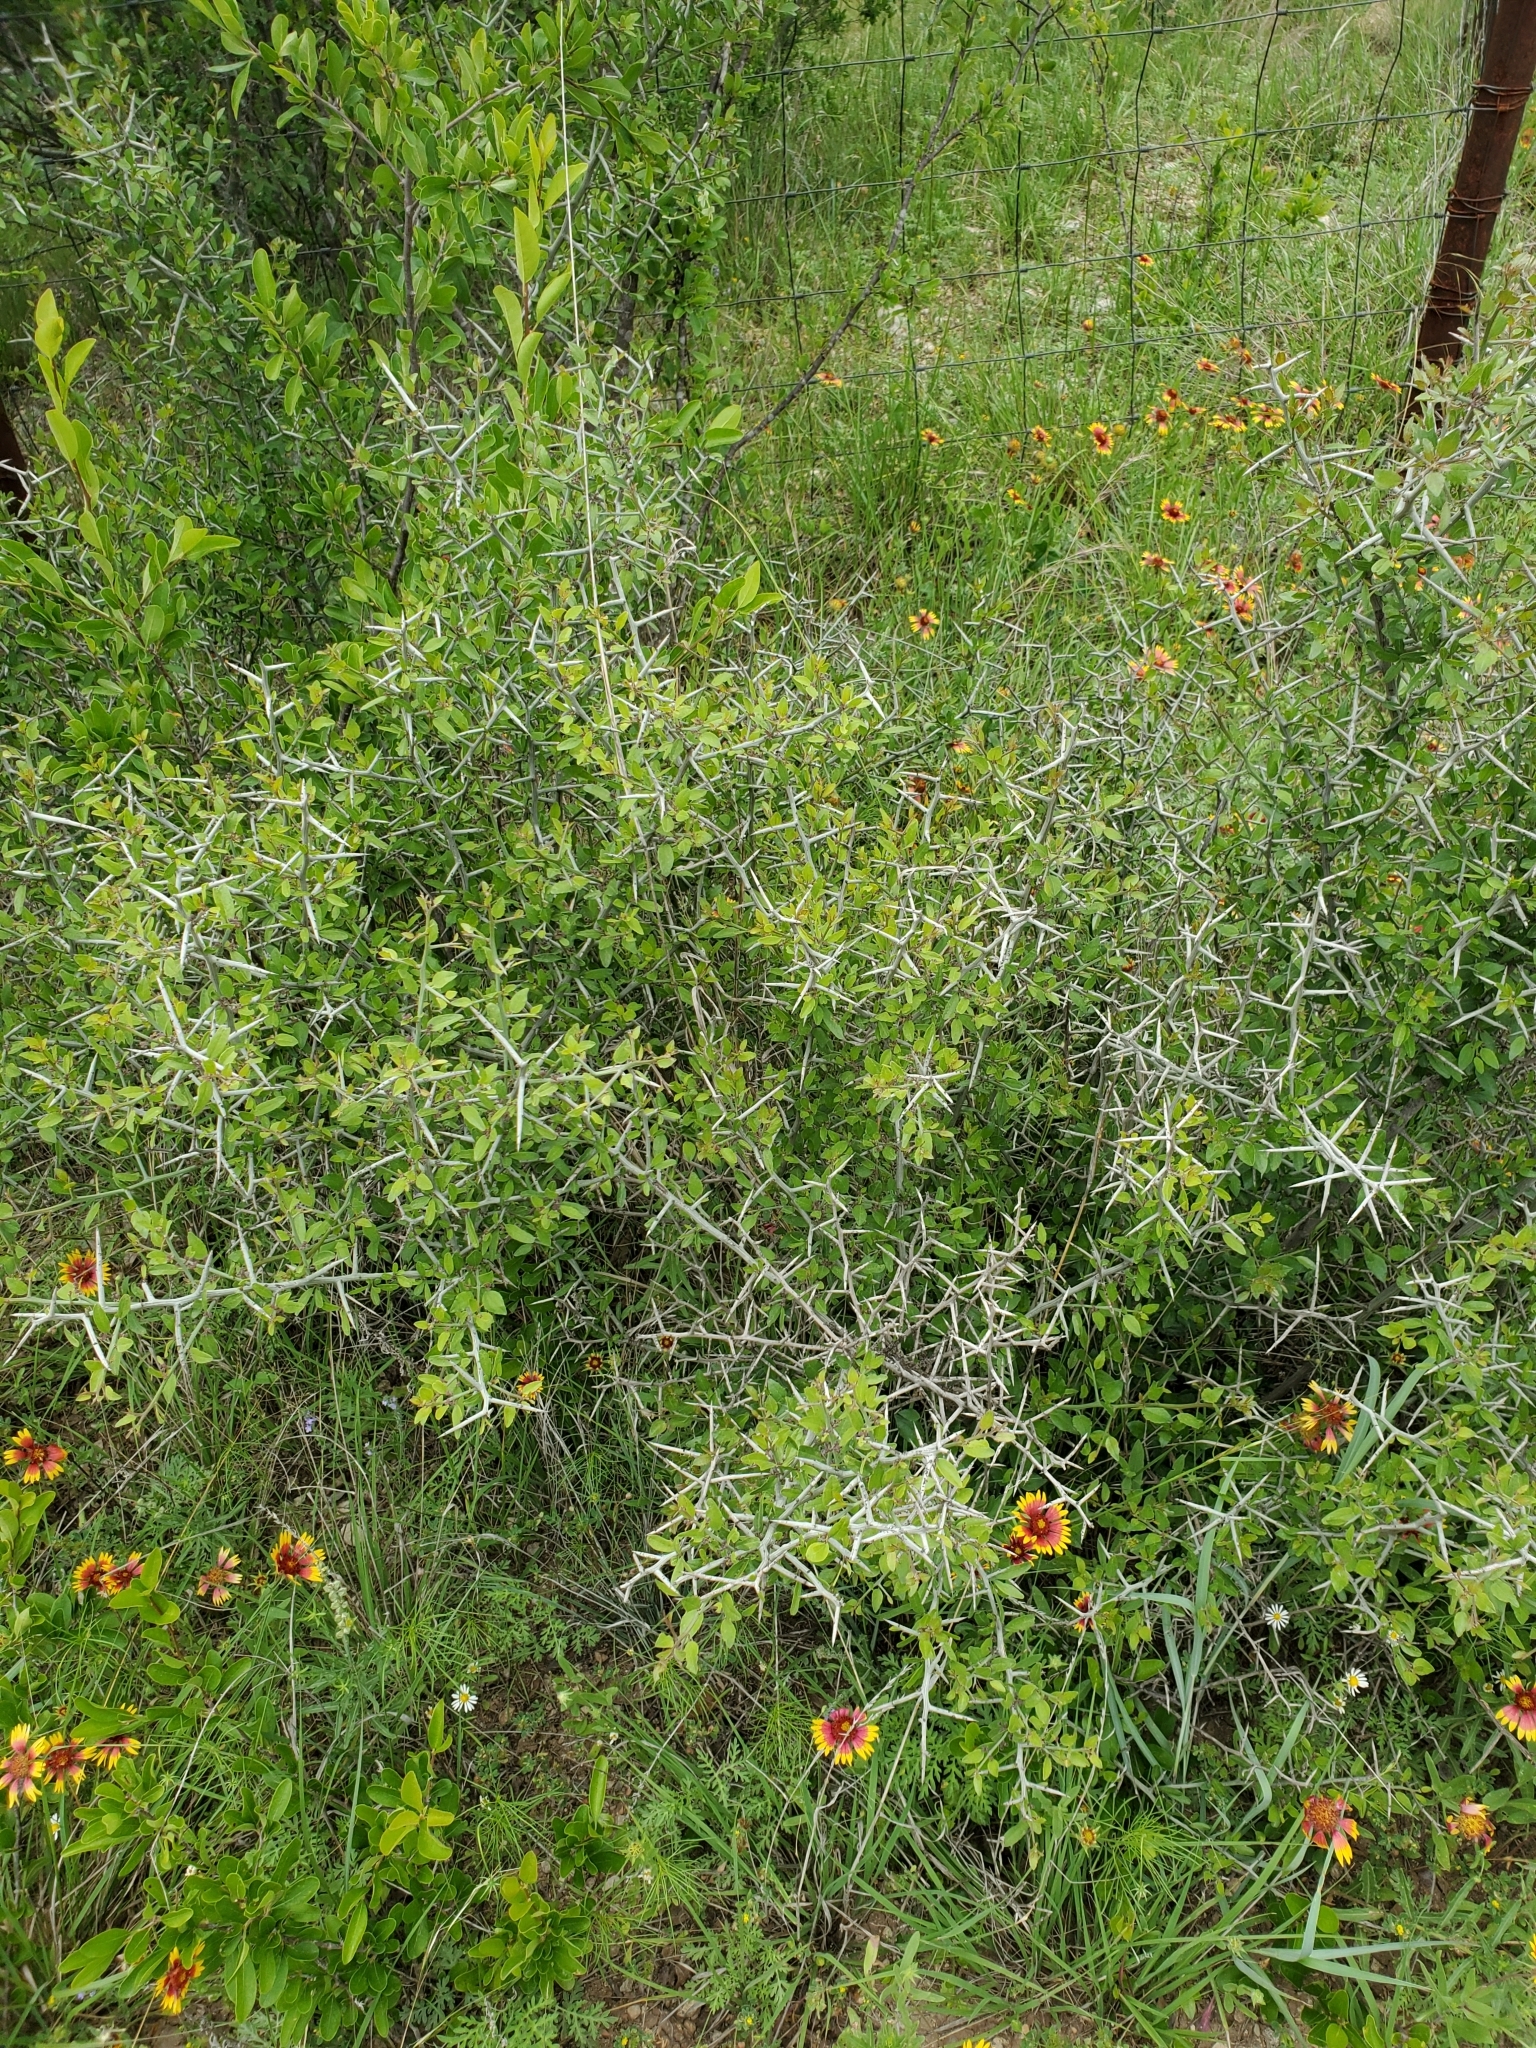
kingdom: Plantae
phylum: Tracheophyta
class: Magnoliopsida
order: Rosales
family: Rhamnaceae
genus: Sarcomphalus
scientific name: Sarcomphalus obtusifolius
